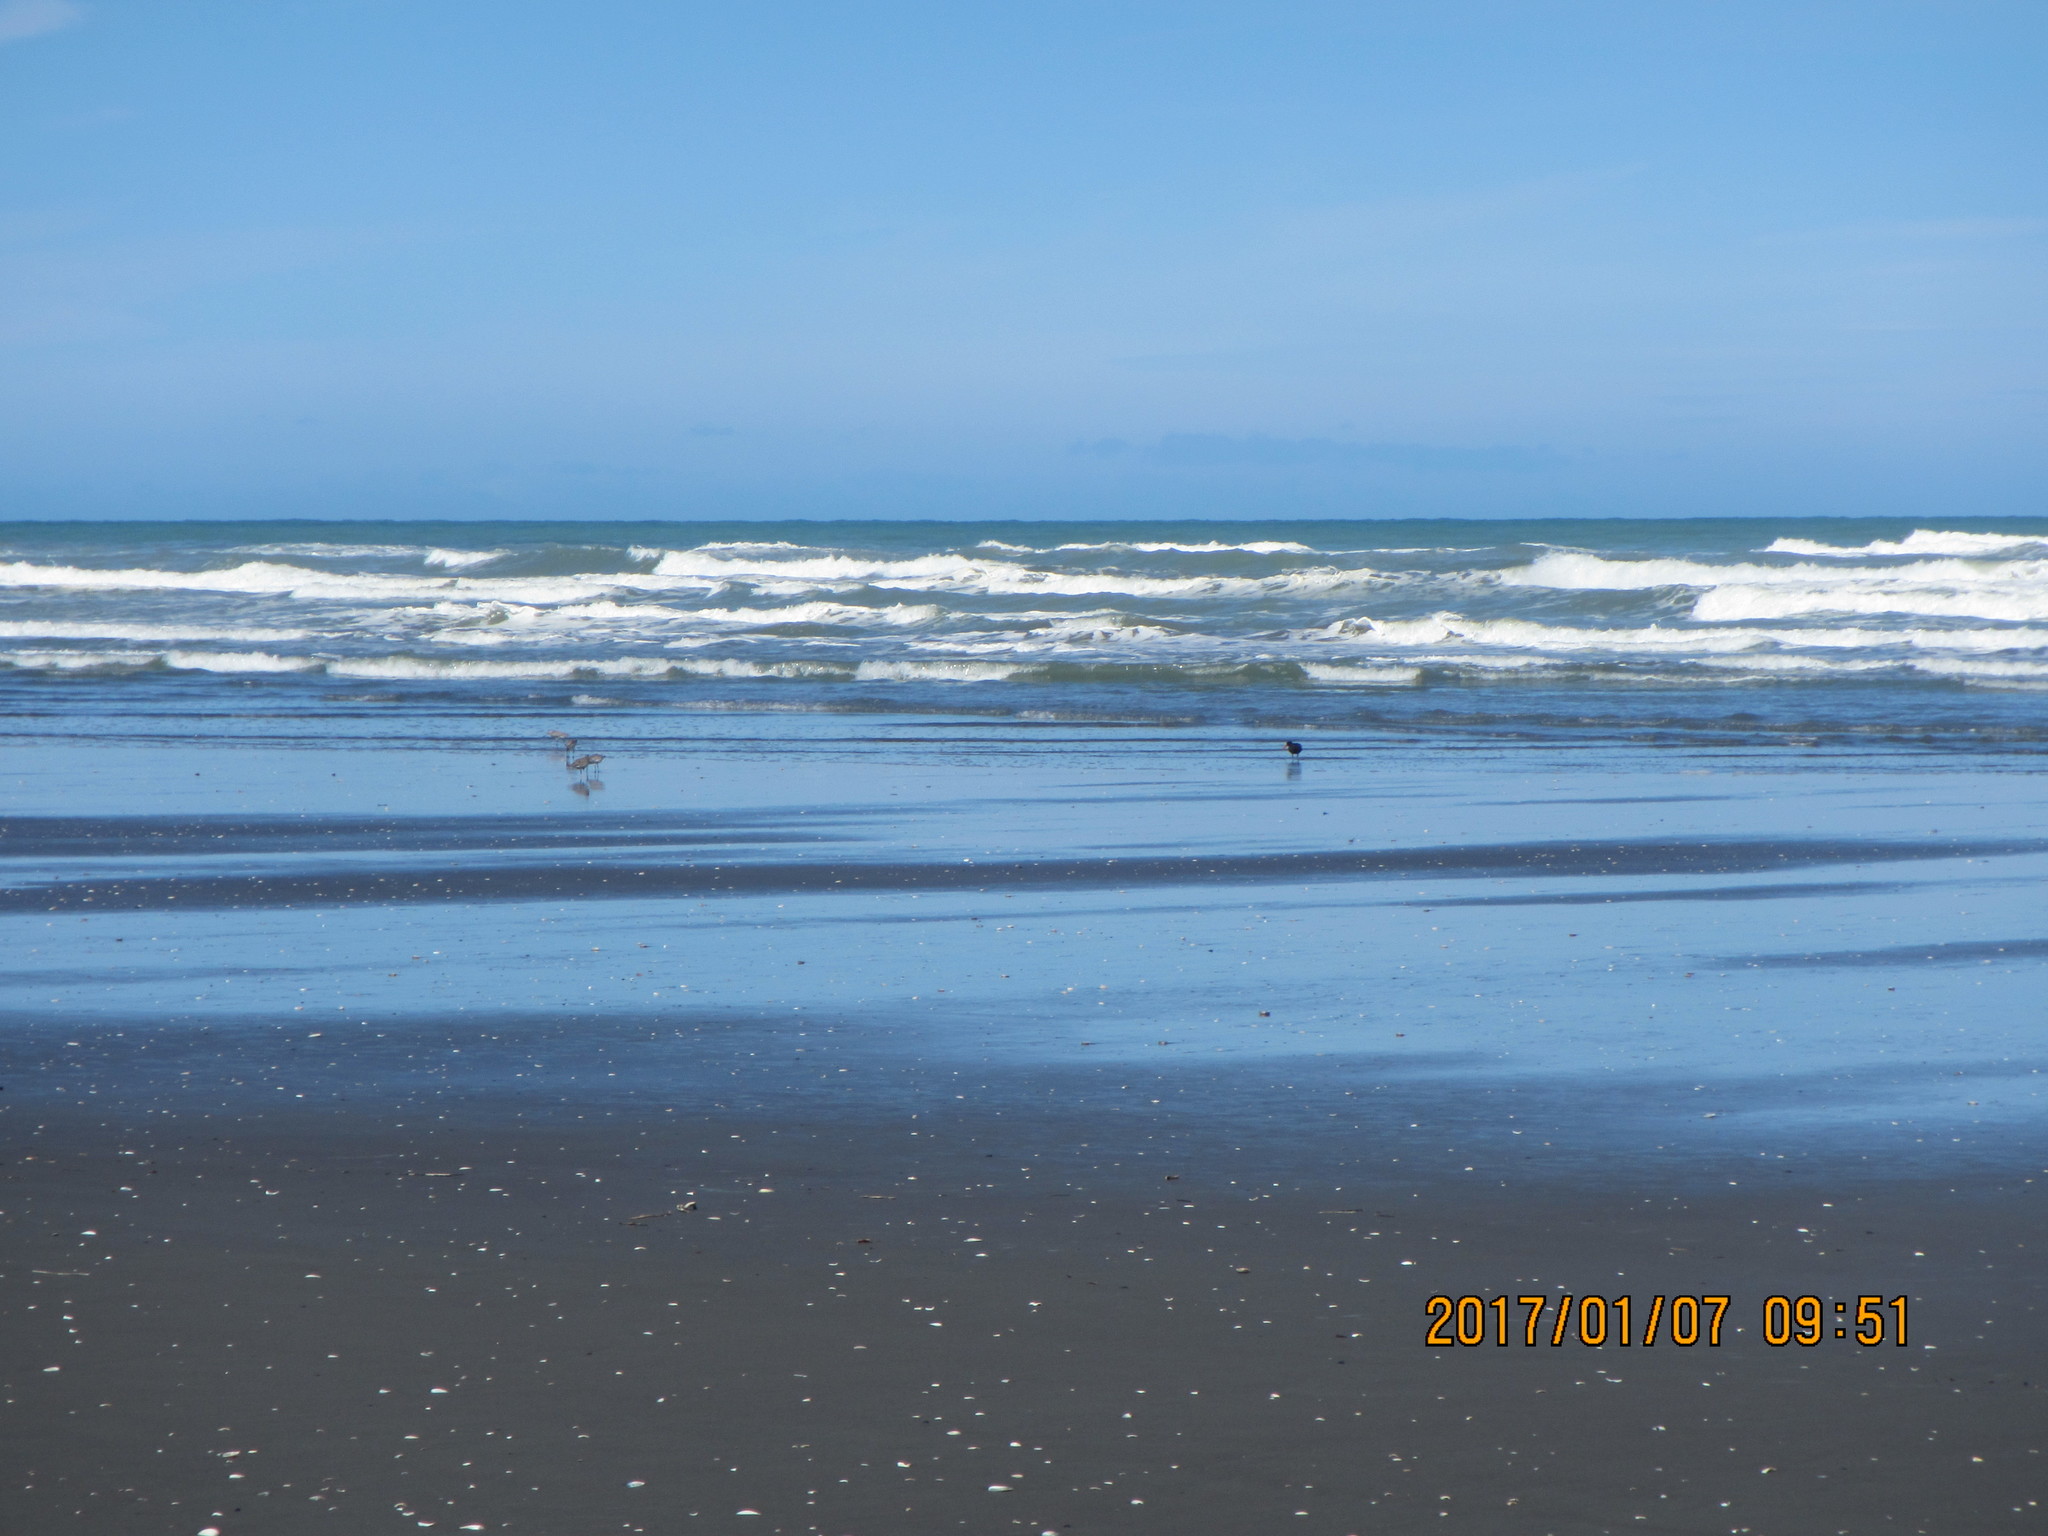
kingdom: Animalia
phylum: Chordata
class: Aves
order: Charadriiformes
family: Scolopacidae
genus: Limosa
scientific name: Limosa lapponica
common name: Bar-tailed godwit
